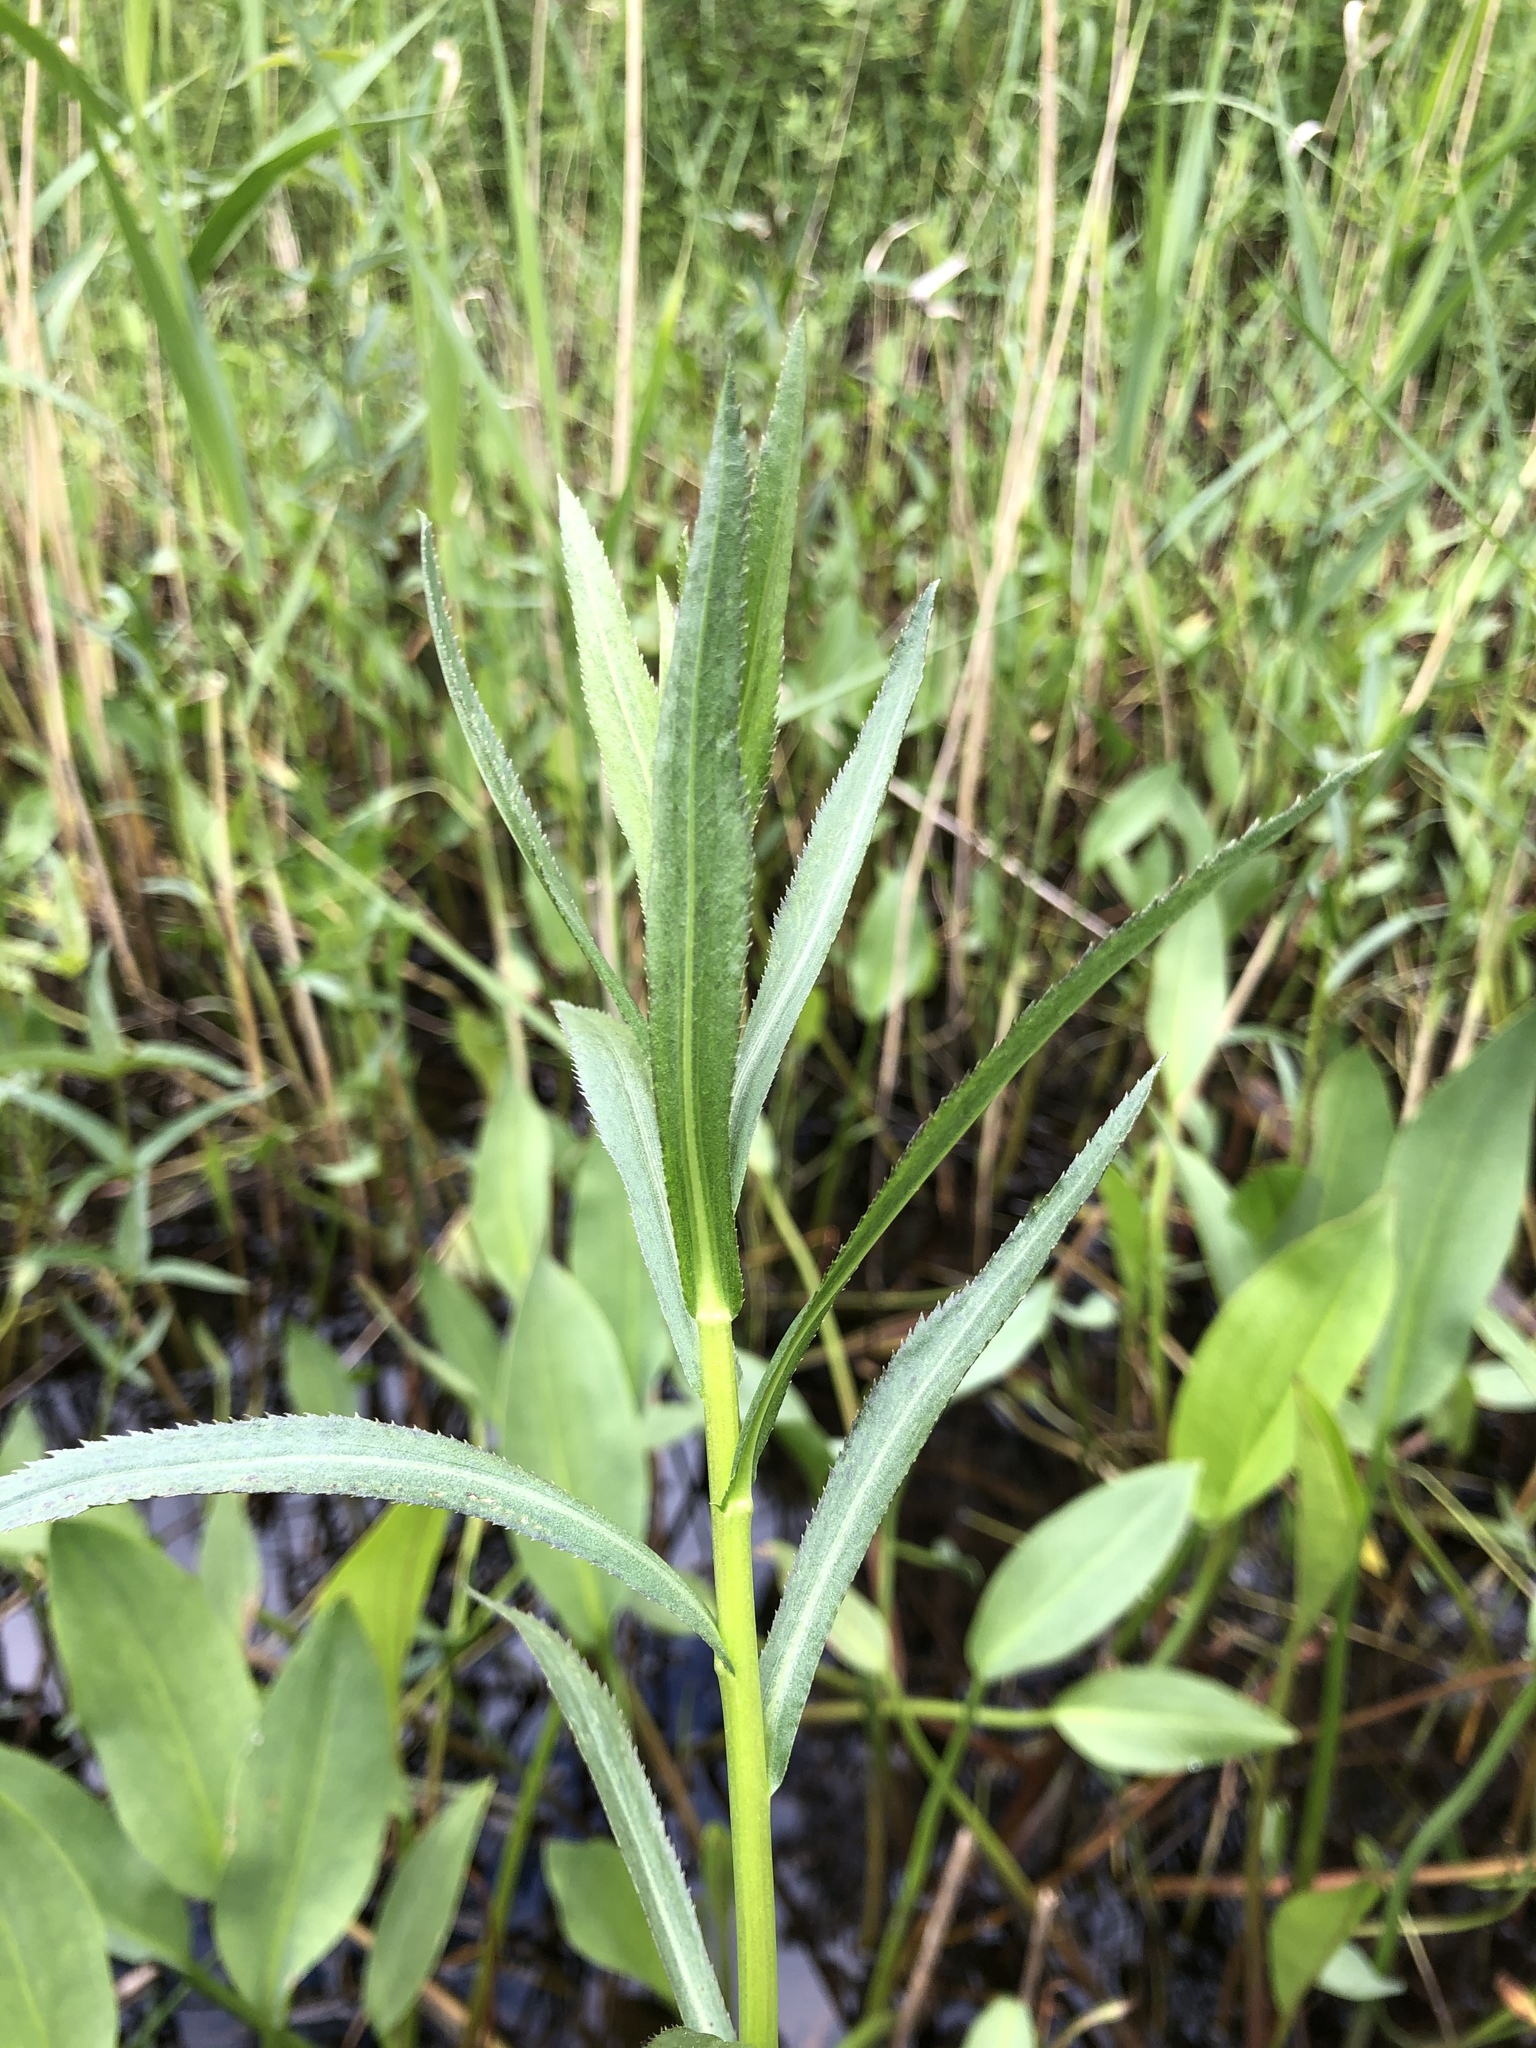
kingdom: Plantae
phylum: Tracheophyta
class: Magnoliopsida
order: Asterales
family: Asteraceae
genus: Achillea
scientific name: Achillea salicifolia
